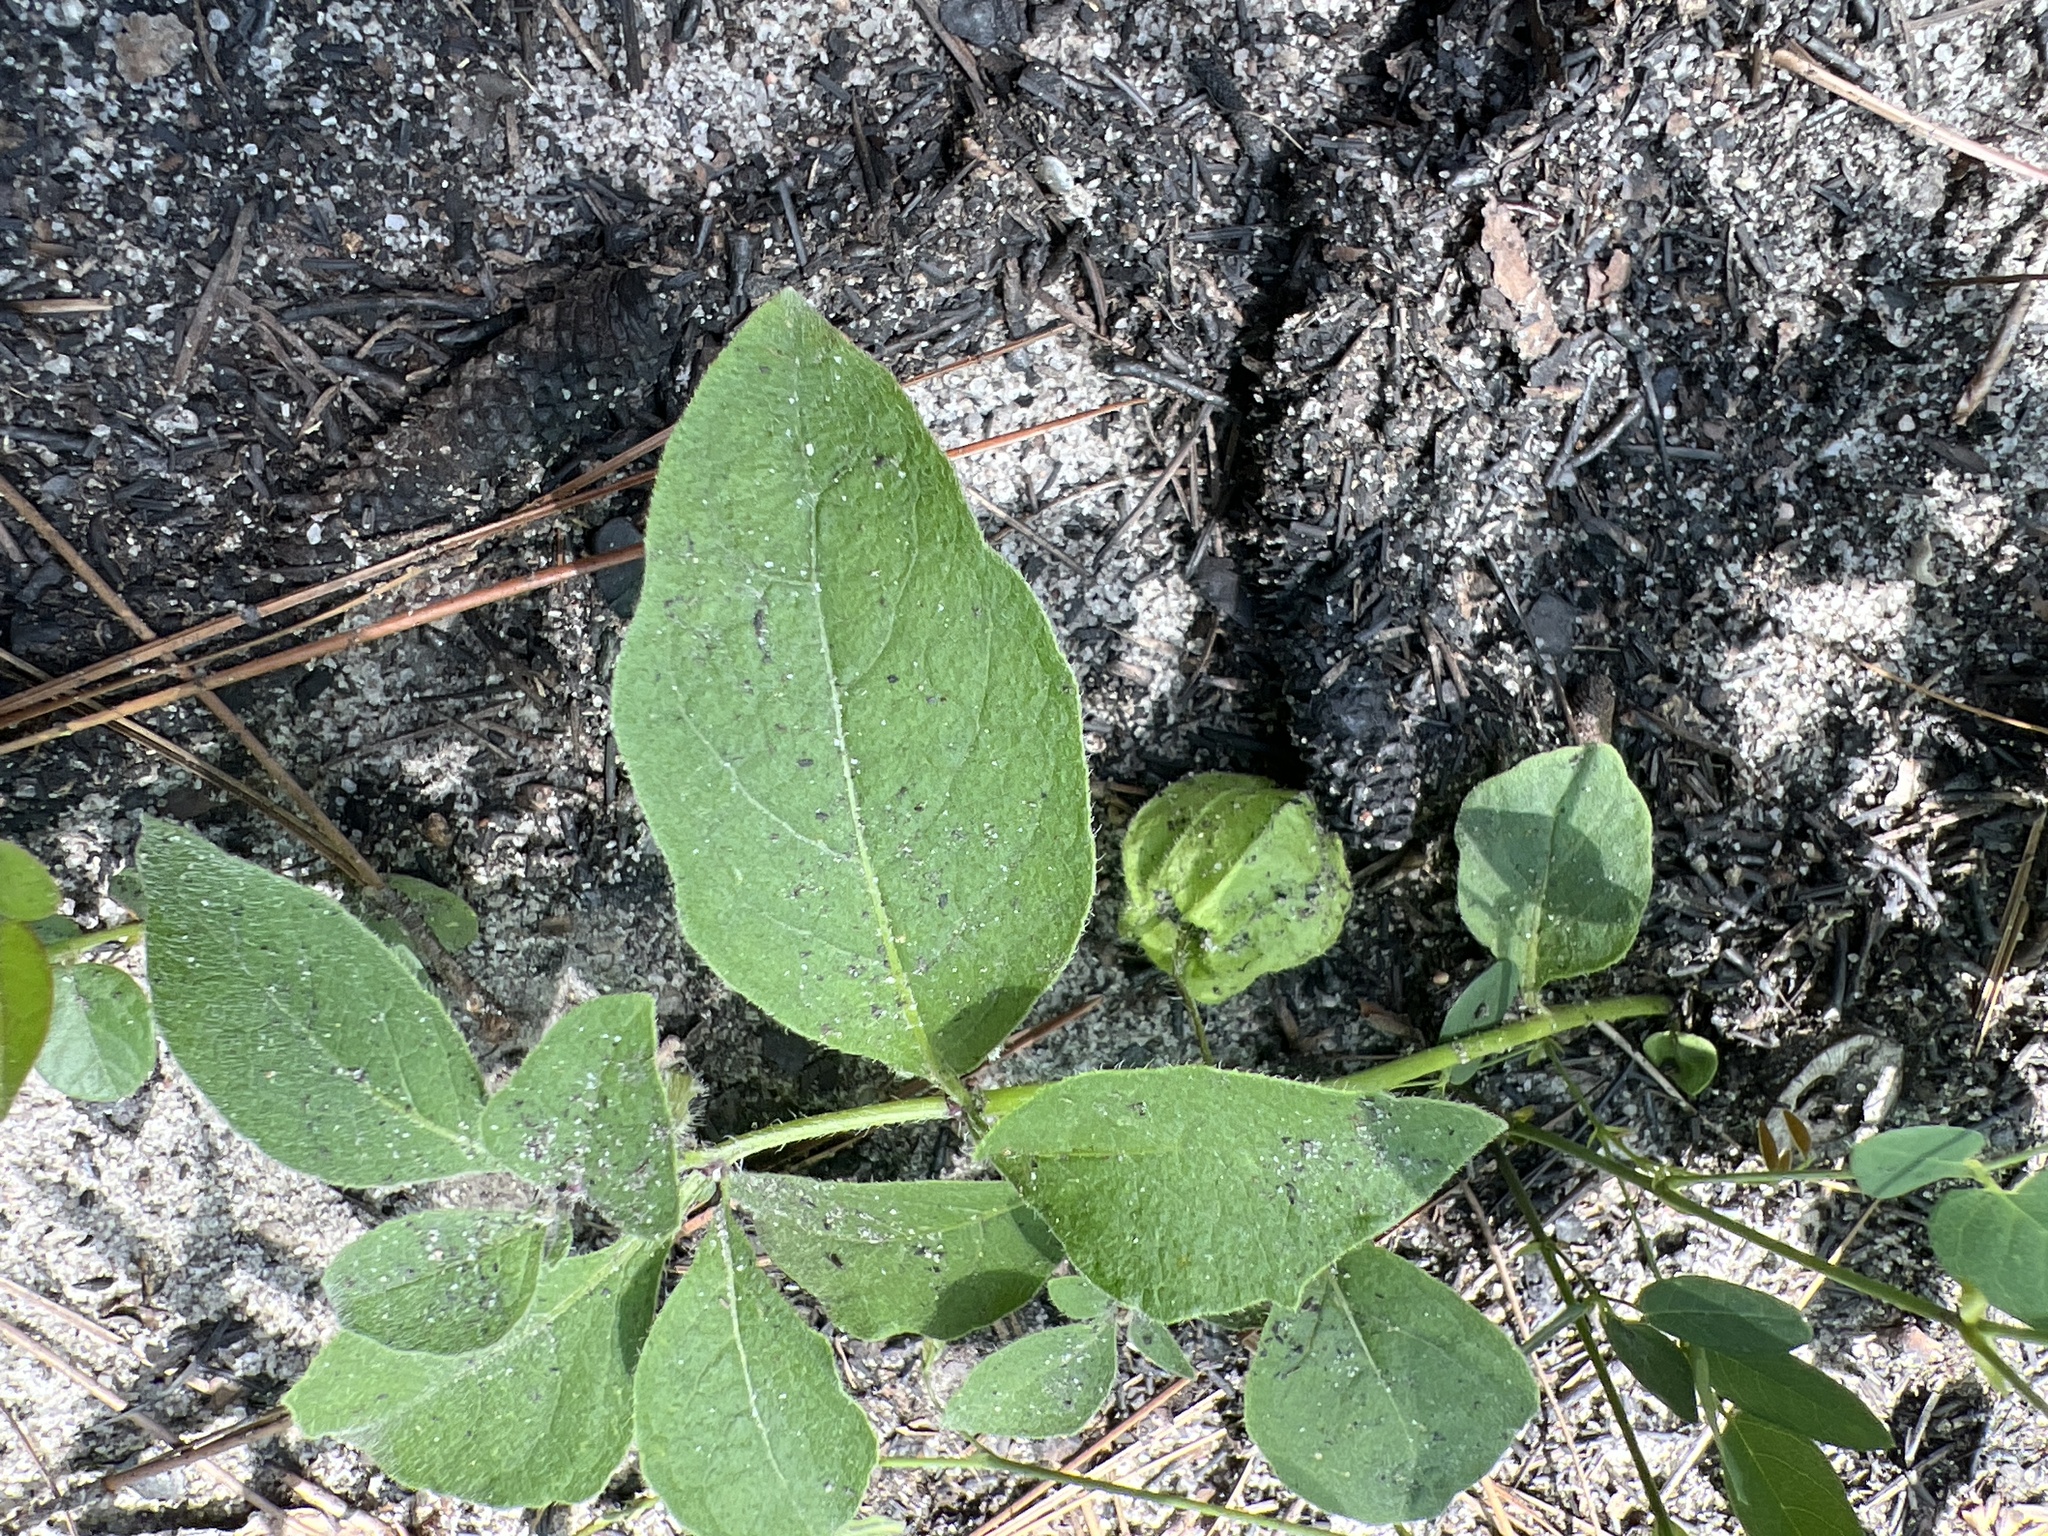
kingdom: Plantae
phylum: Tracheophyta
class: Magnoliopsida
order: Solanales
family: Solanaceae
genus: Physalis
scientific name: Physalis lanceolata
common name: Lance-leaved ground-cherry
